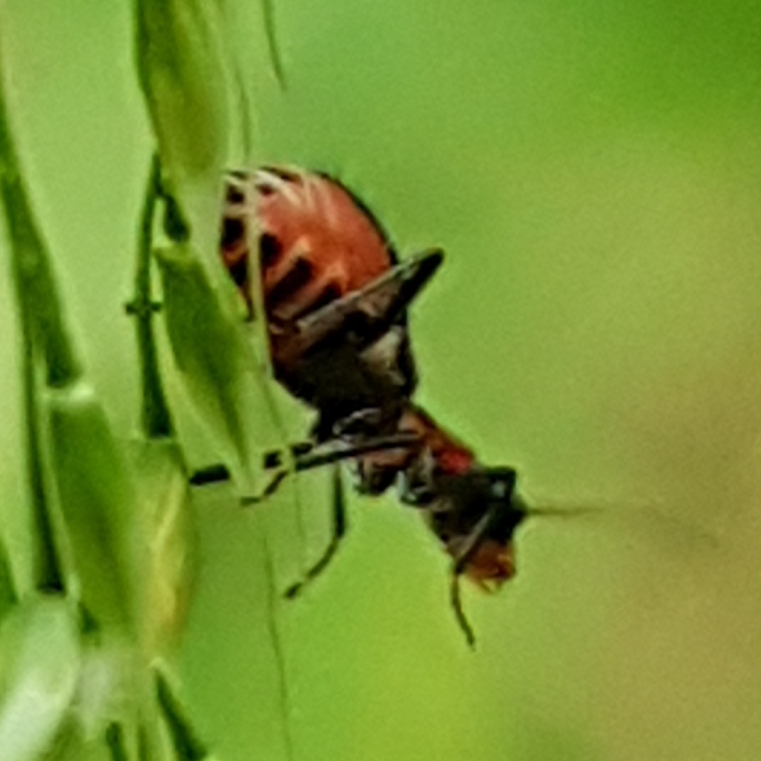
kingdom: Animalia
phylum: Arthropoda
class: Insecta
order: Coleoptera
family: Melyridae
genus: Cyrtosus
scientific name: Cyrtosus cyanipennis
